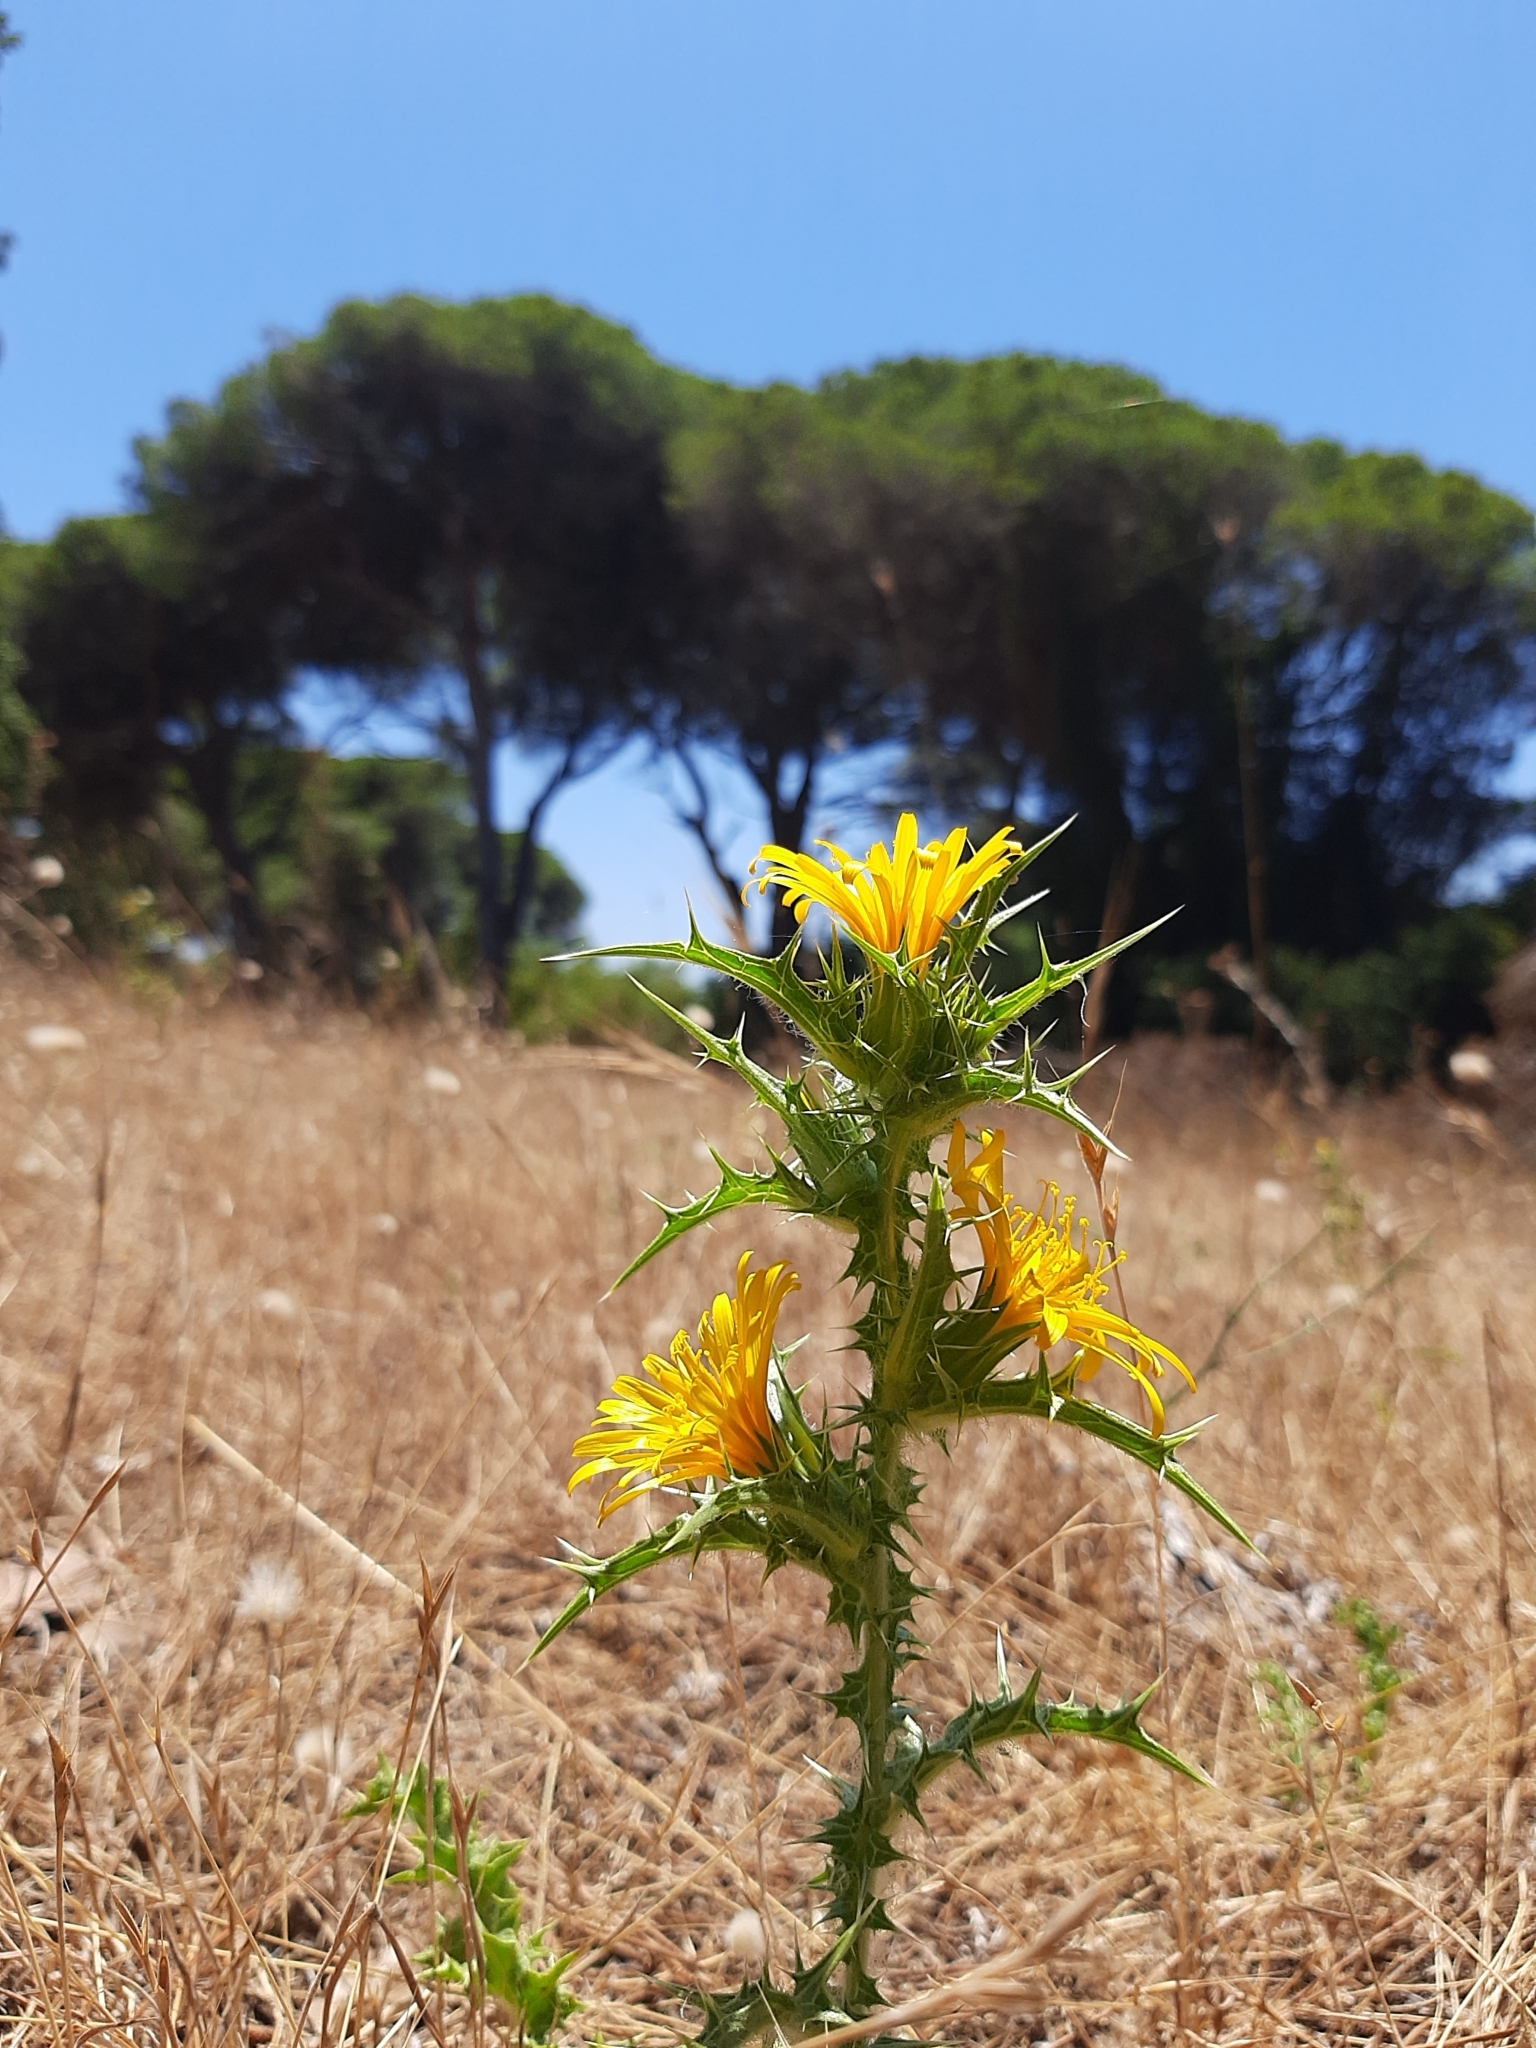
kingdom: Plantae
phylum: Tracheophyta
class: Magnoliopsida
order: Asterales
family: Asteraceae
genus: Scolymus
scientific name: Scolymus hispanicus
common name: Golden thistle
